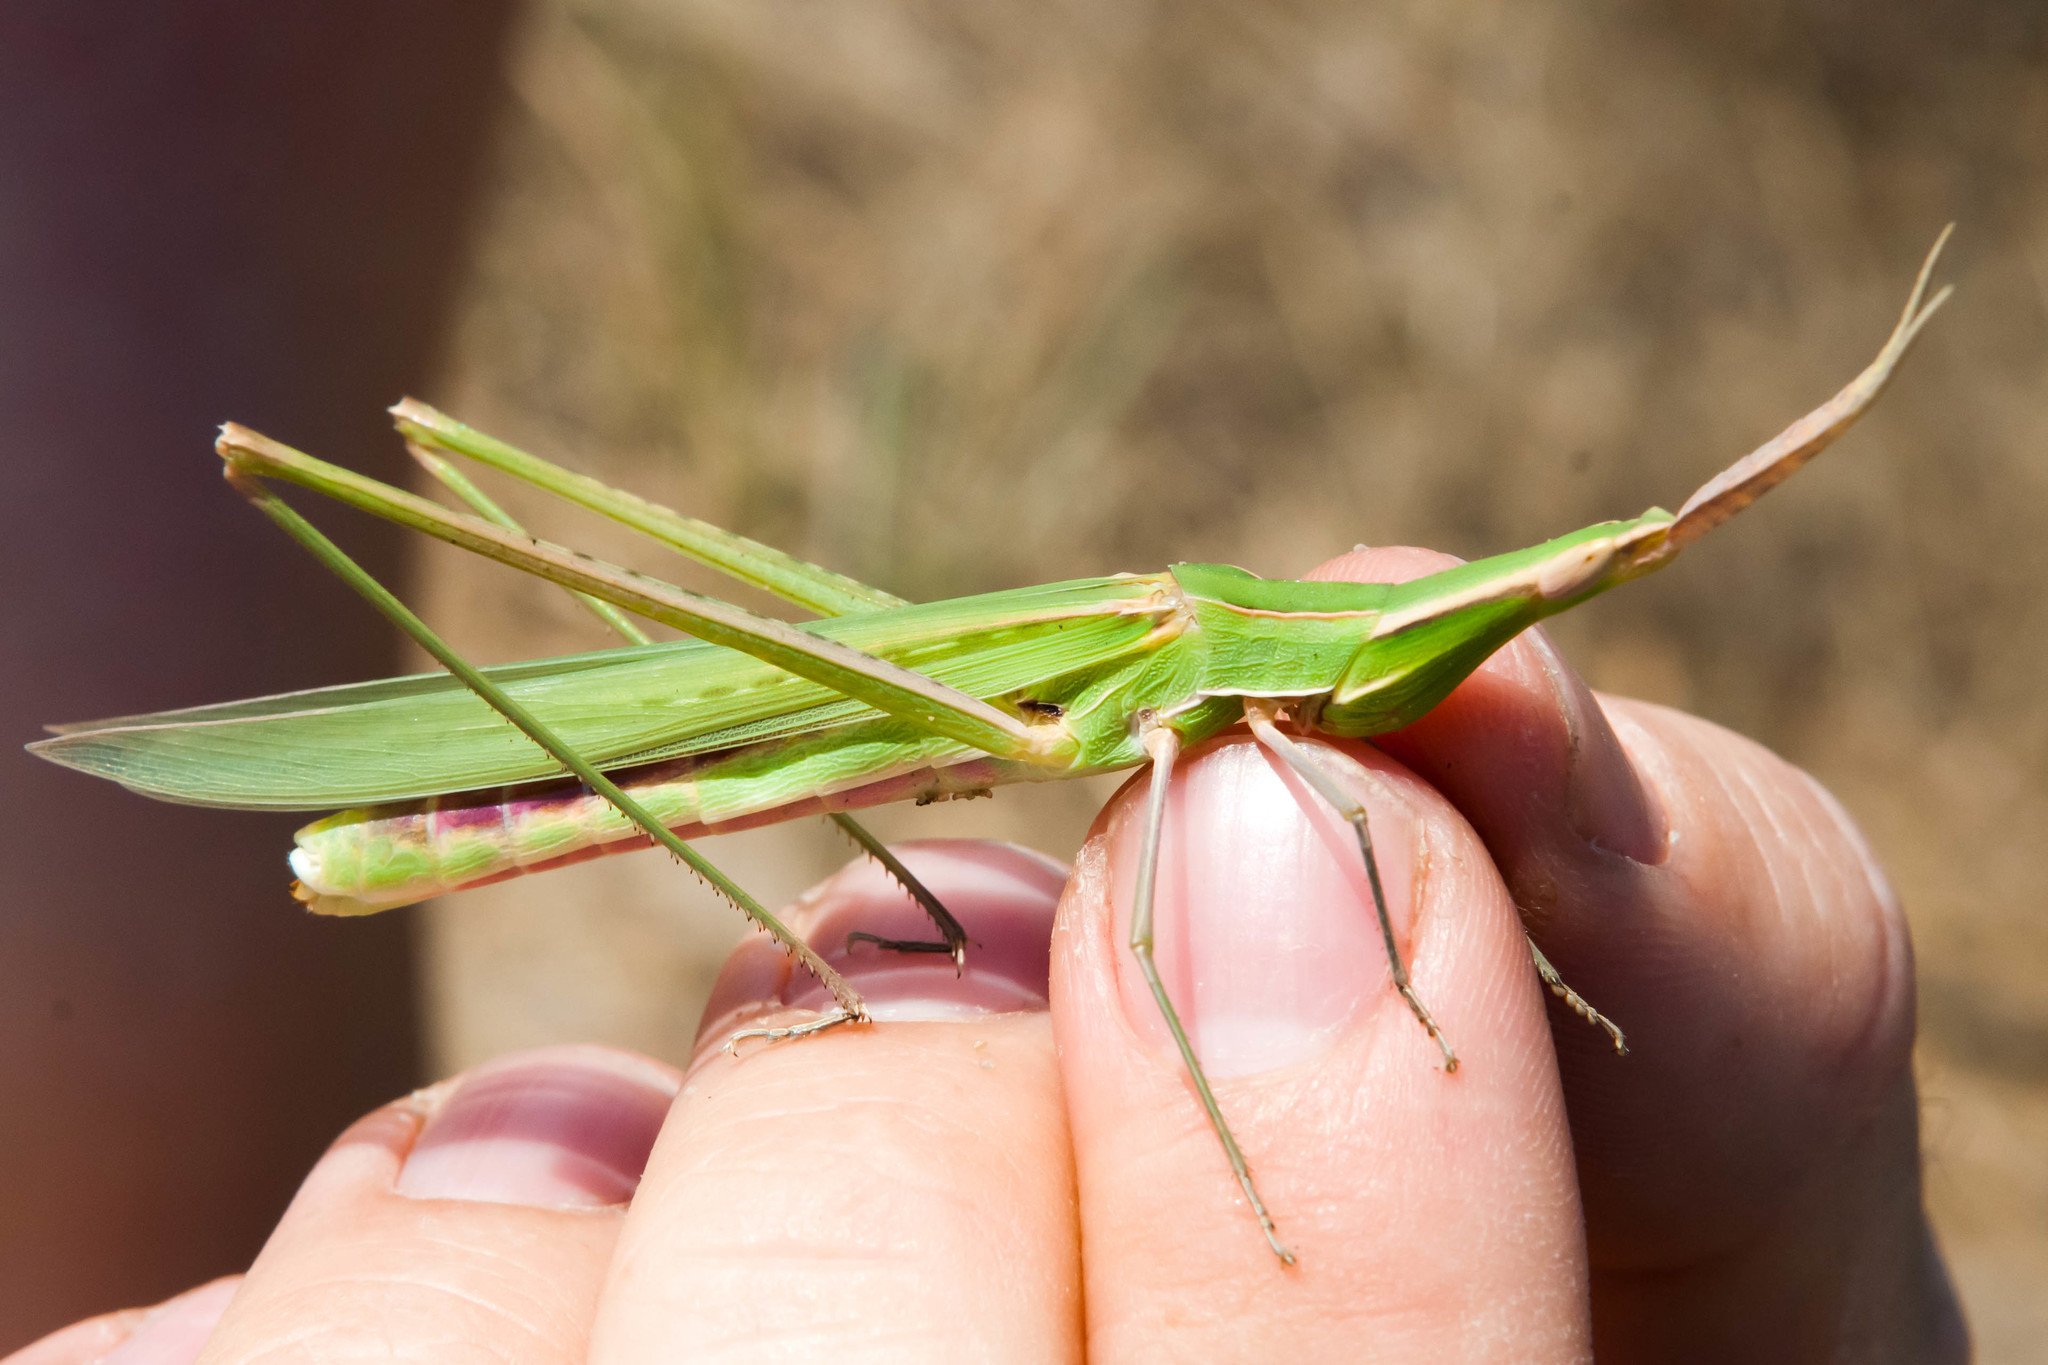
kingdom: Animalia
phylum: Arthropoda
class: Insecta
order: Orthoptera
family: Acrididae
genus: Acrida
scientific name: Acrida ungarica
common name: Common cone-headed grasshopper
